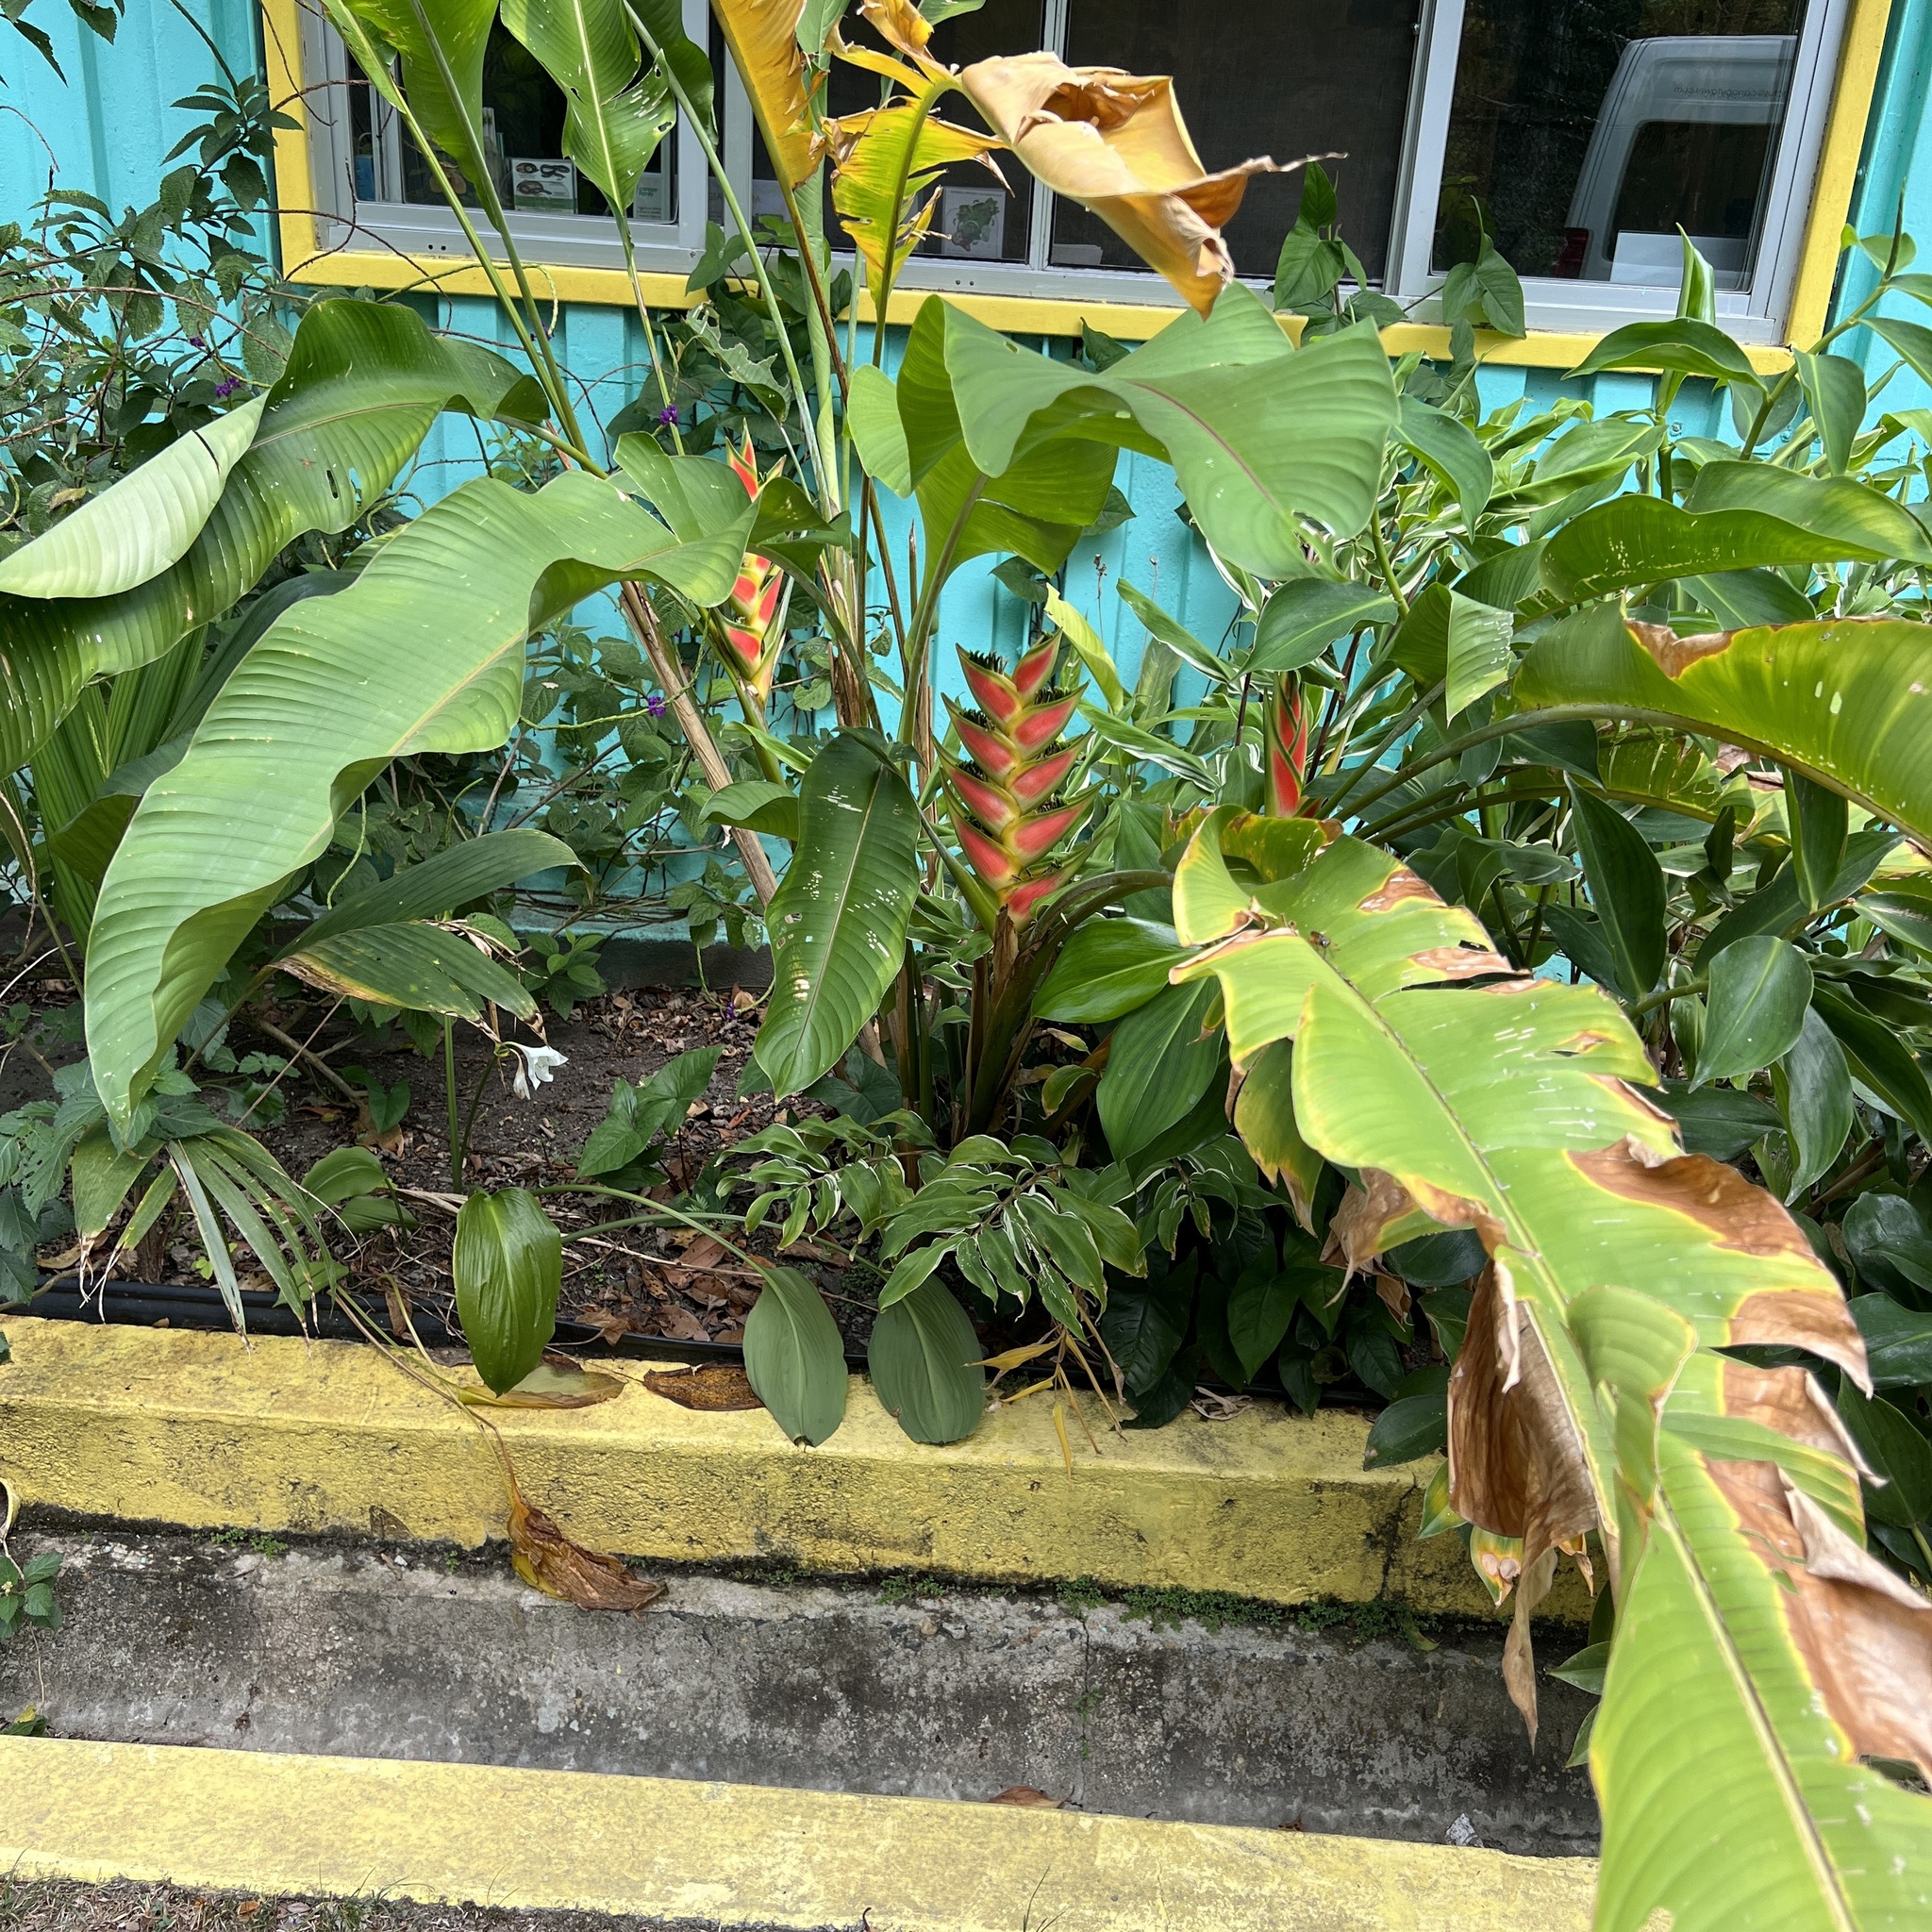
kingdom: Plantae
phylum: Tracheophyta
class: Liliopsida
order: Zingiberales
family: Heliconiaceae
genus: Heliconia
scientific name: Heliconia wagneriana
